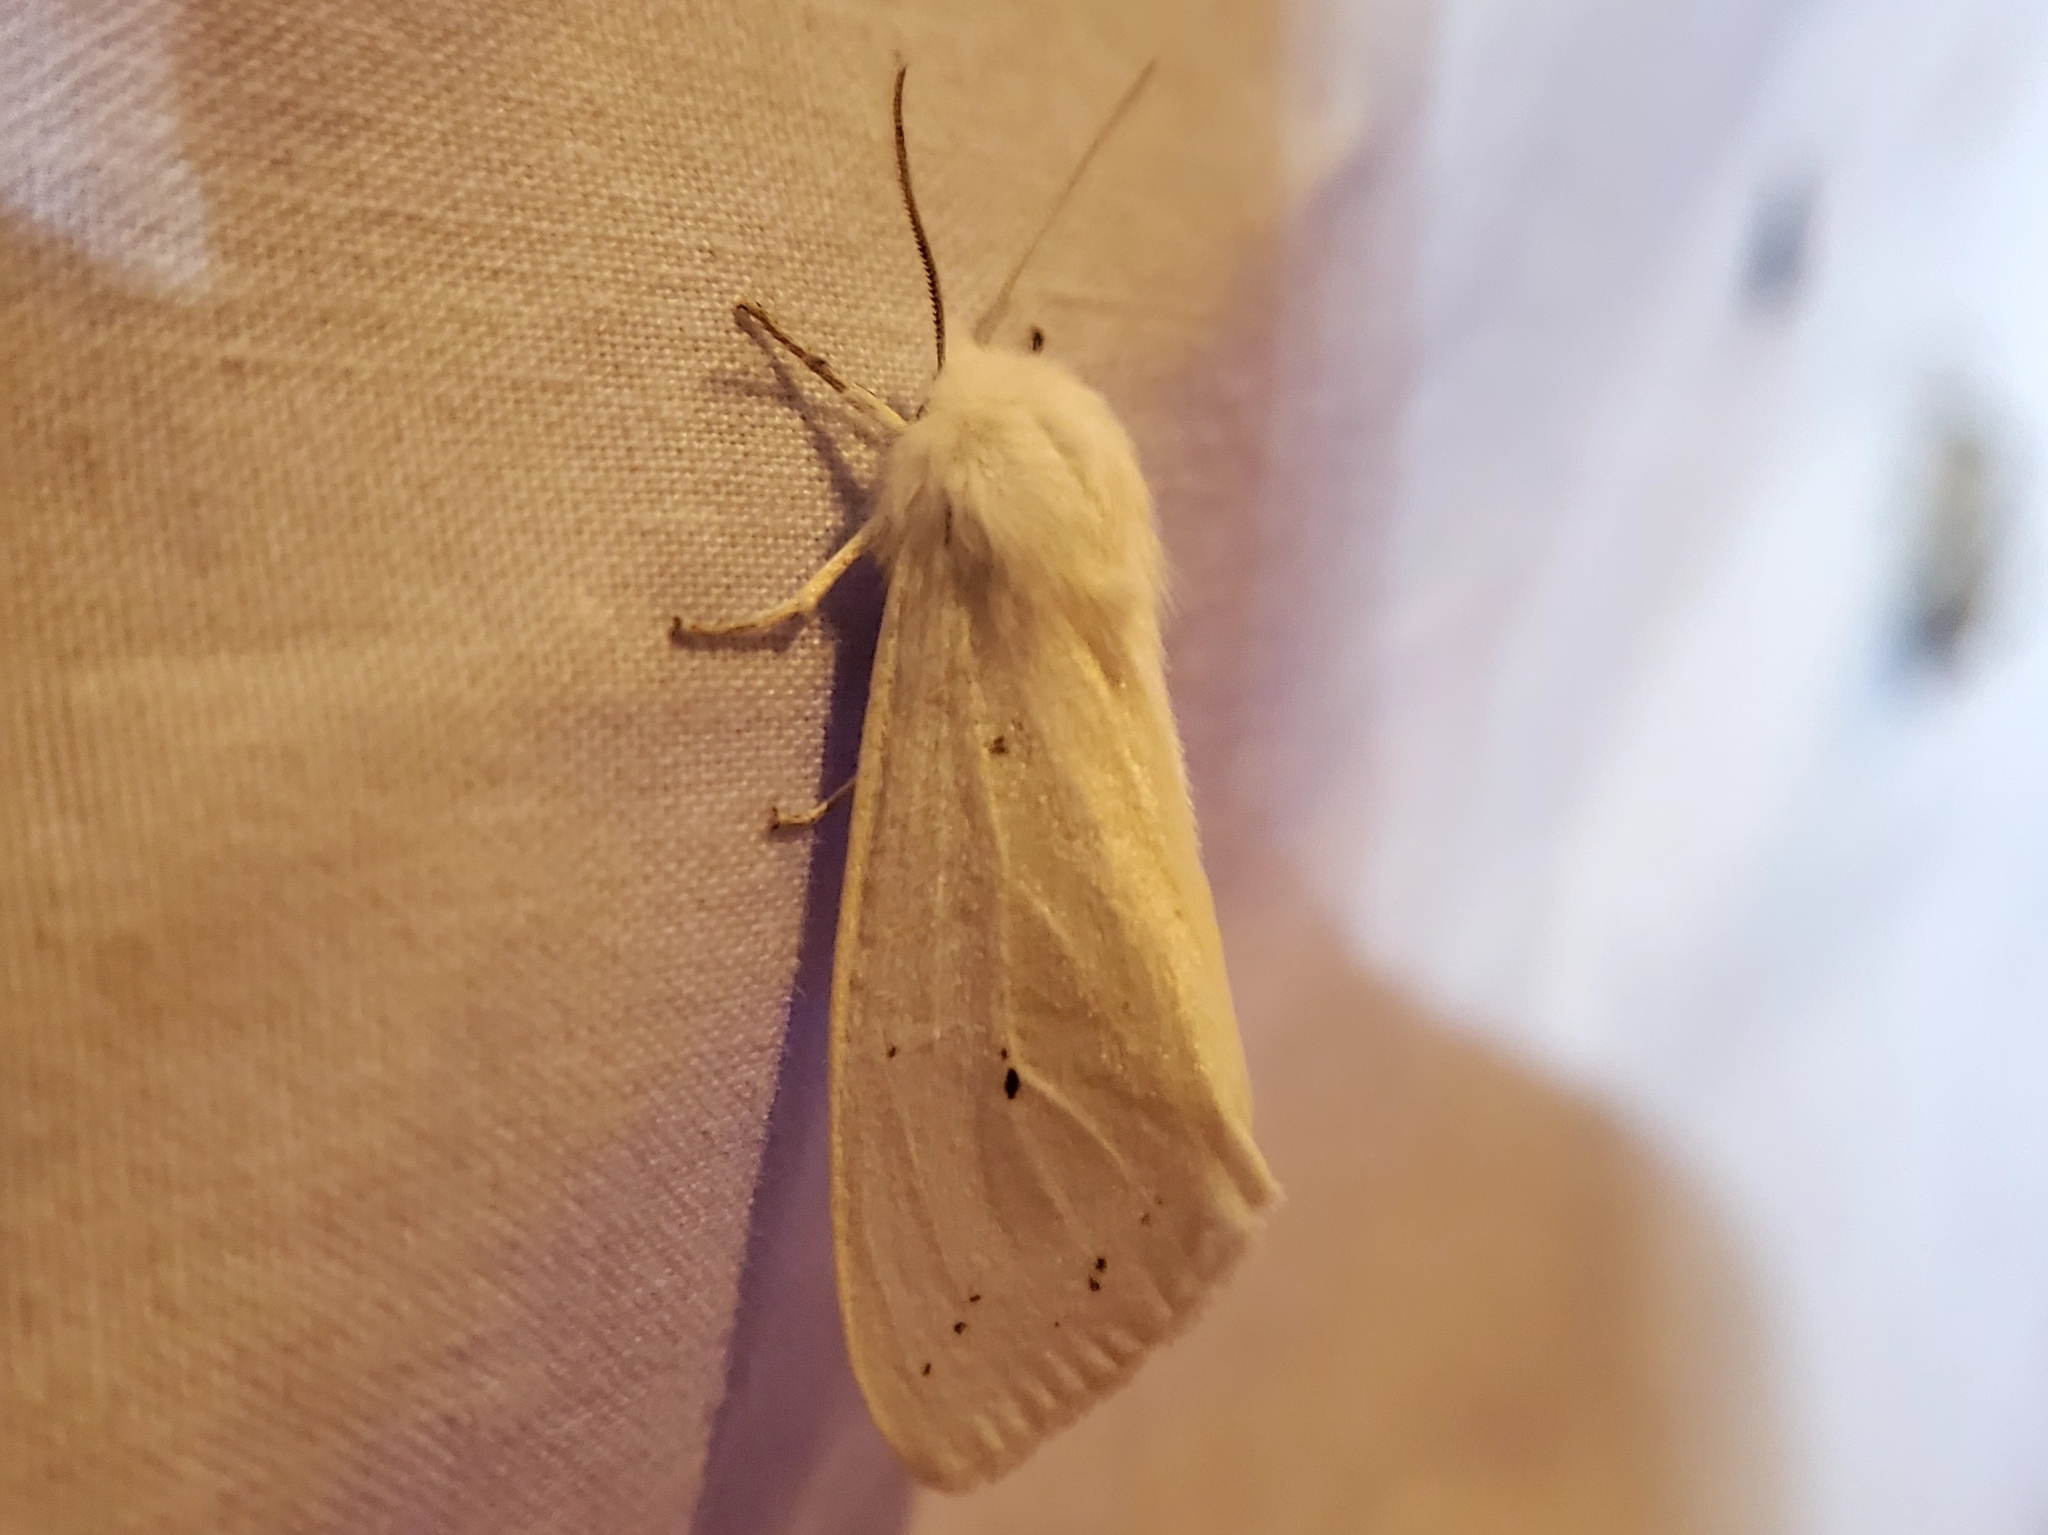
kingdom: Animalia
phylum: Arthropoda
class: Insecta
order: Lepidoptera
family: Erebidae
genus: Spilosoma
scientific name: Spilosoma congrua
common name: Agreeable tiger moth
